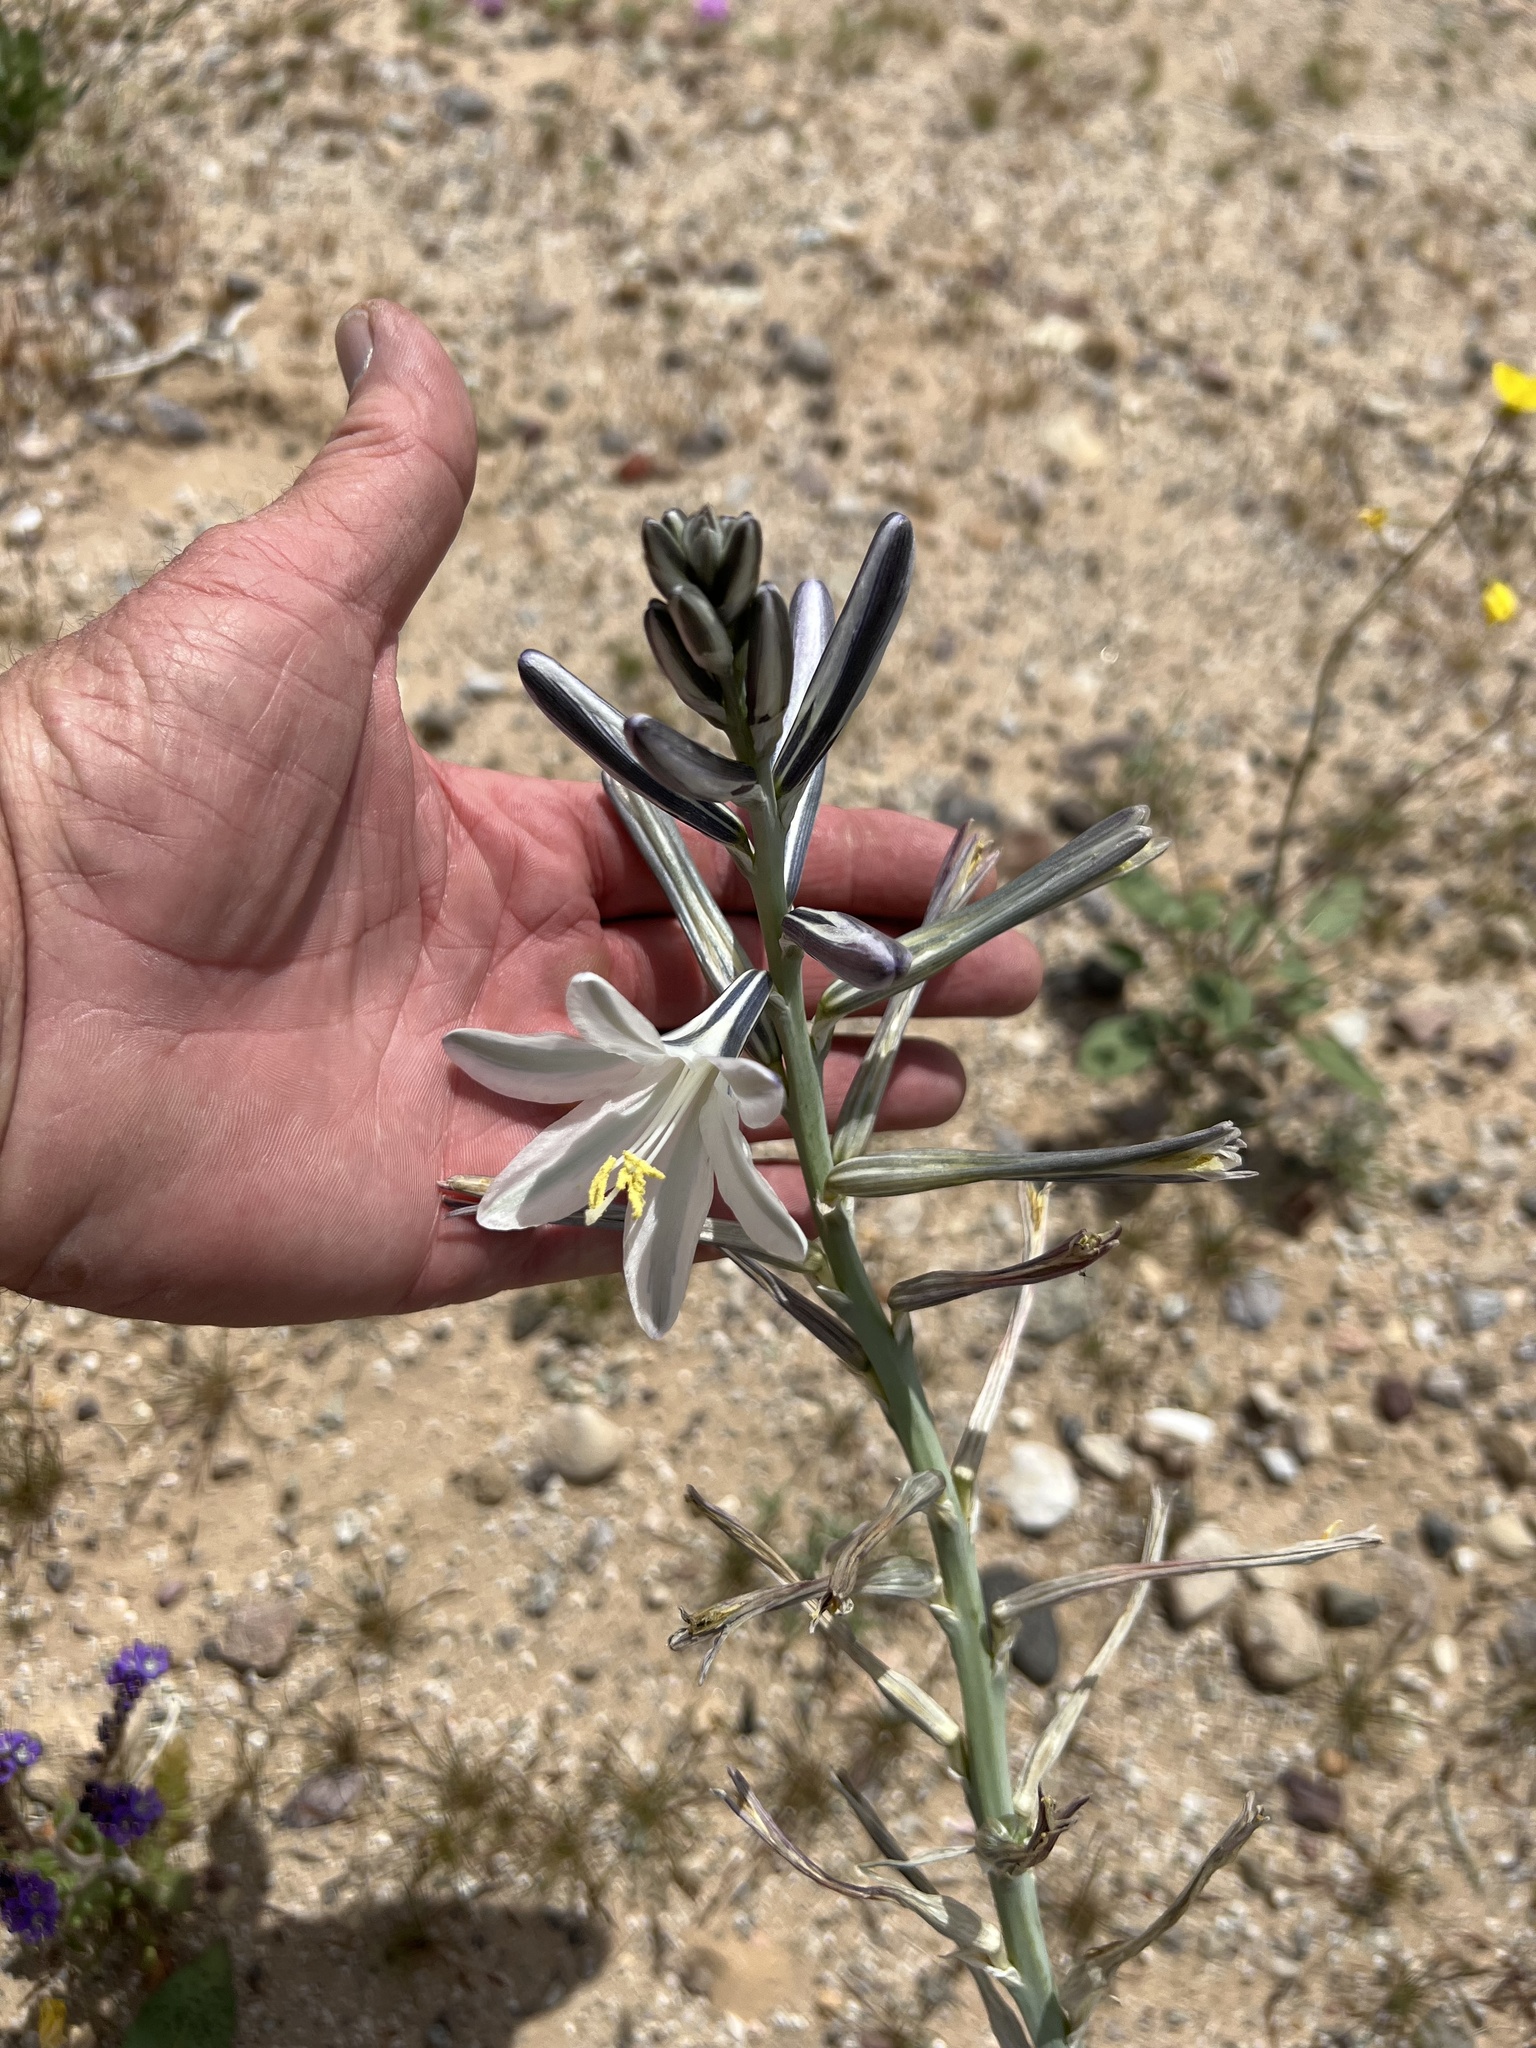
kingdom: Plantae
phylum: Tracheophyta
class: Liliopsida
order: Asparagales
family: Asparagaceae
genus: Hesperocallis
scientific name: Hesperocallis undulata
